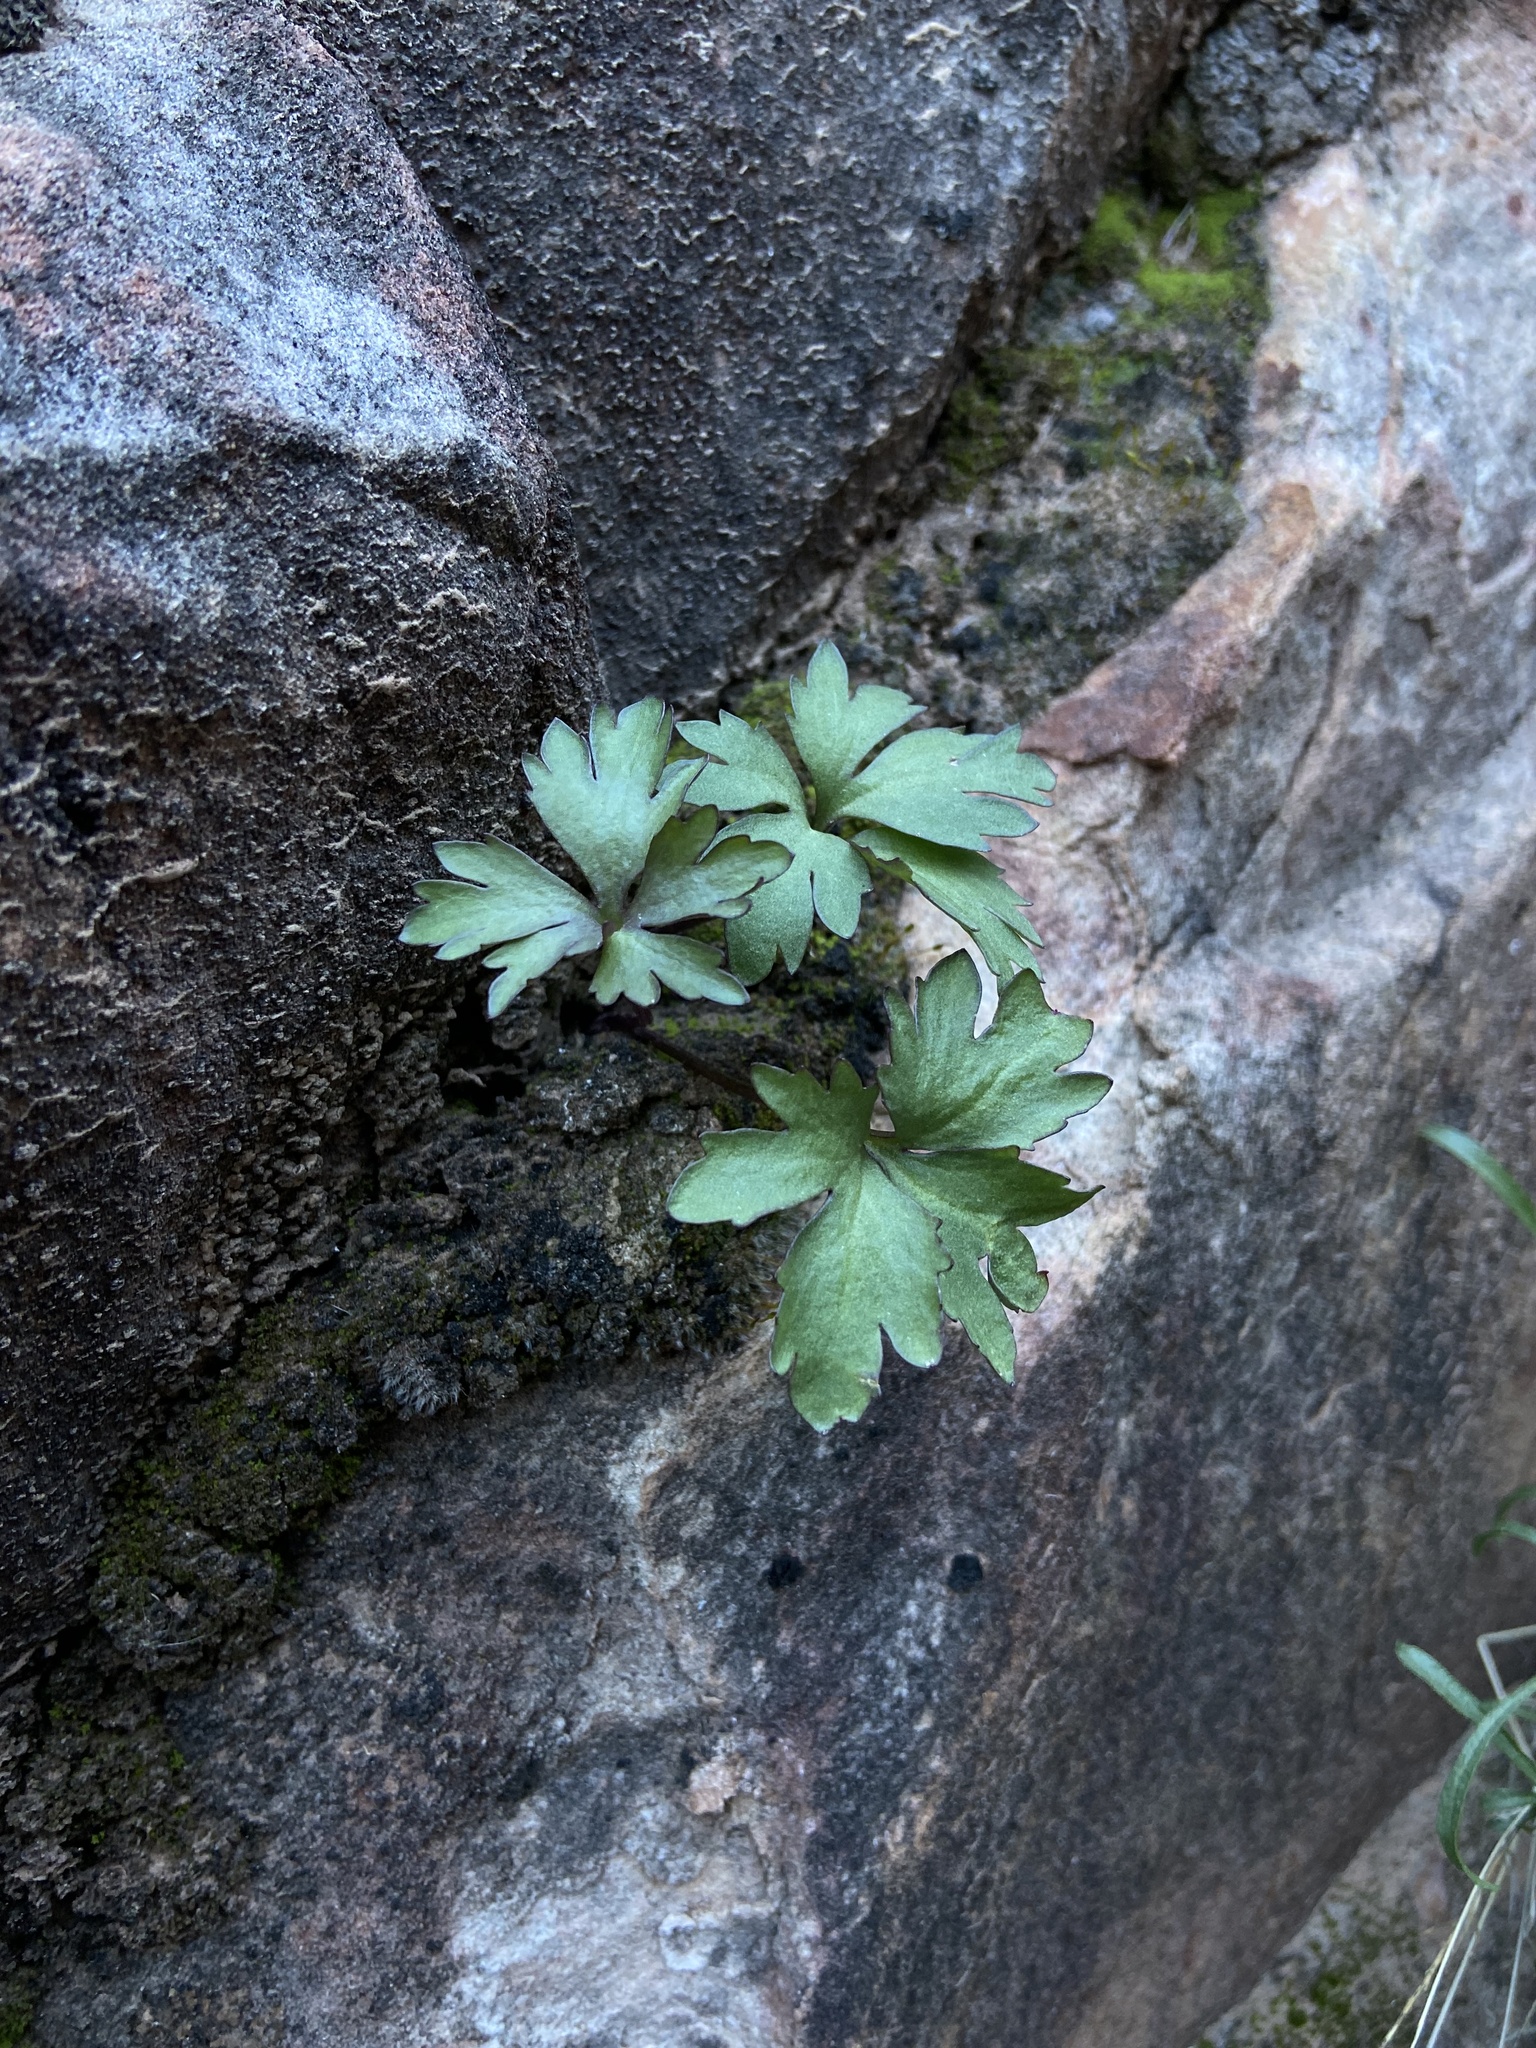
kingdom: Plantae
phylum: Tracheophyta
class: Magnoliopsida
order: Ranunculales
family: Ranunculaceae
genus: Anemone
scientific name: Anemone tuberosa
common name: Desert anemone
